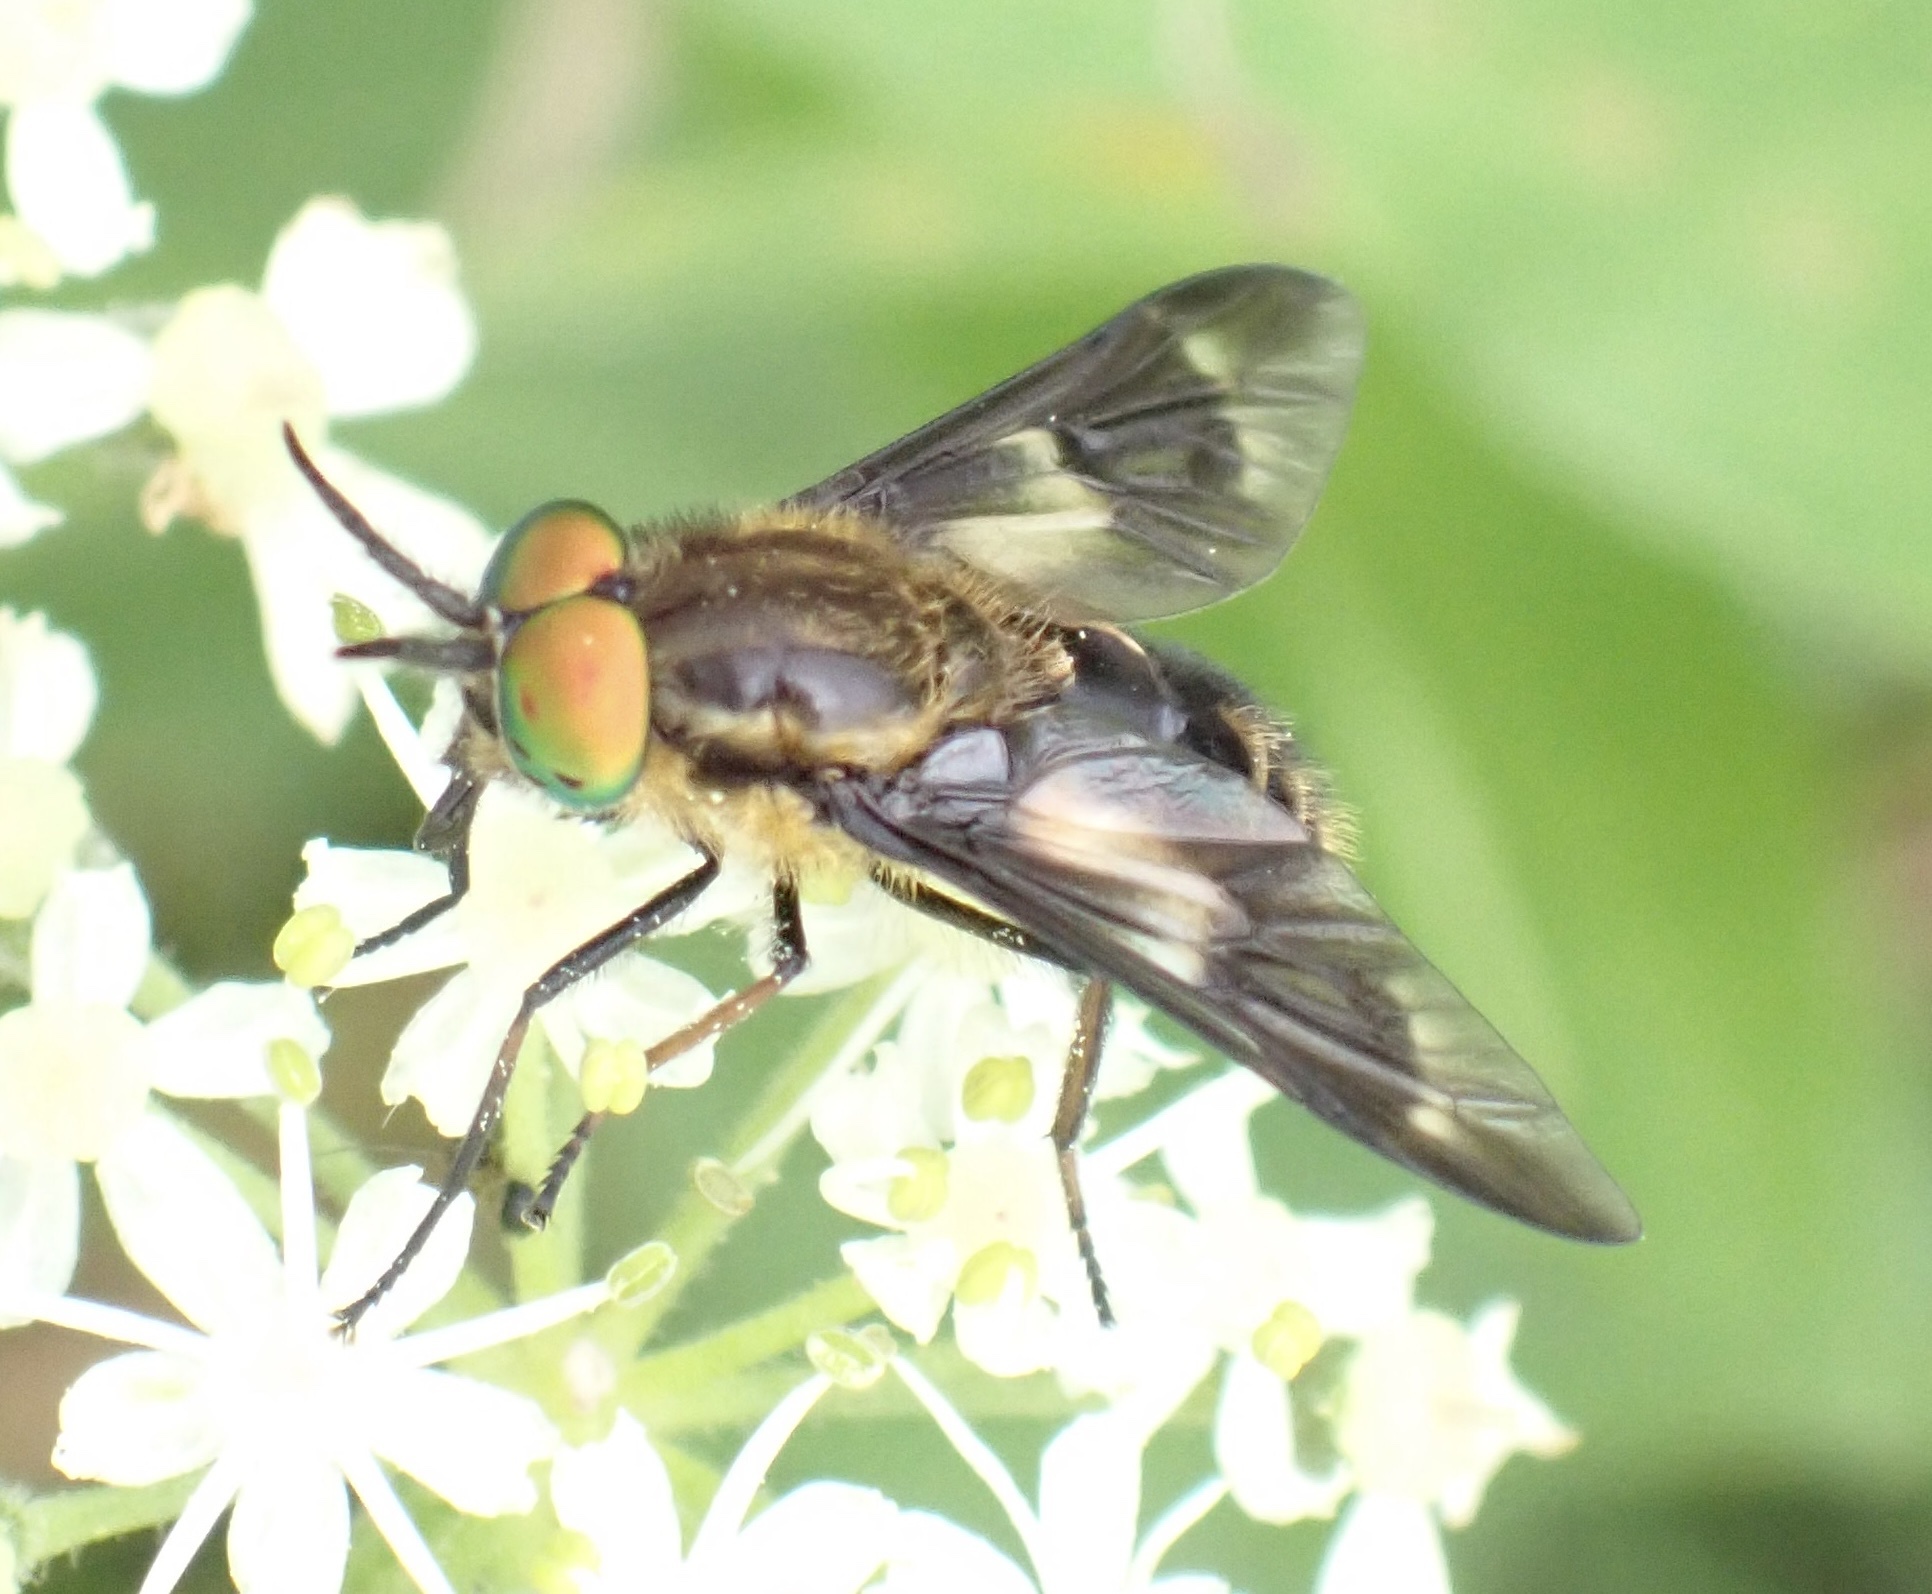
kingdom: Animalia
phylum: Arthropoda
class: Insecta
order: Diptera
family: Tabanidae
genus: Chrysops
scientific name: Chrysops relictus
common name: Twin-lobed deerfly
